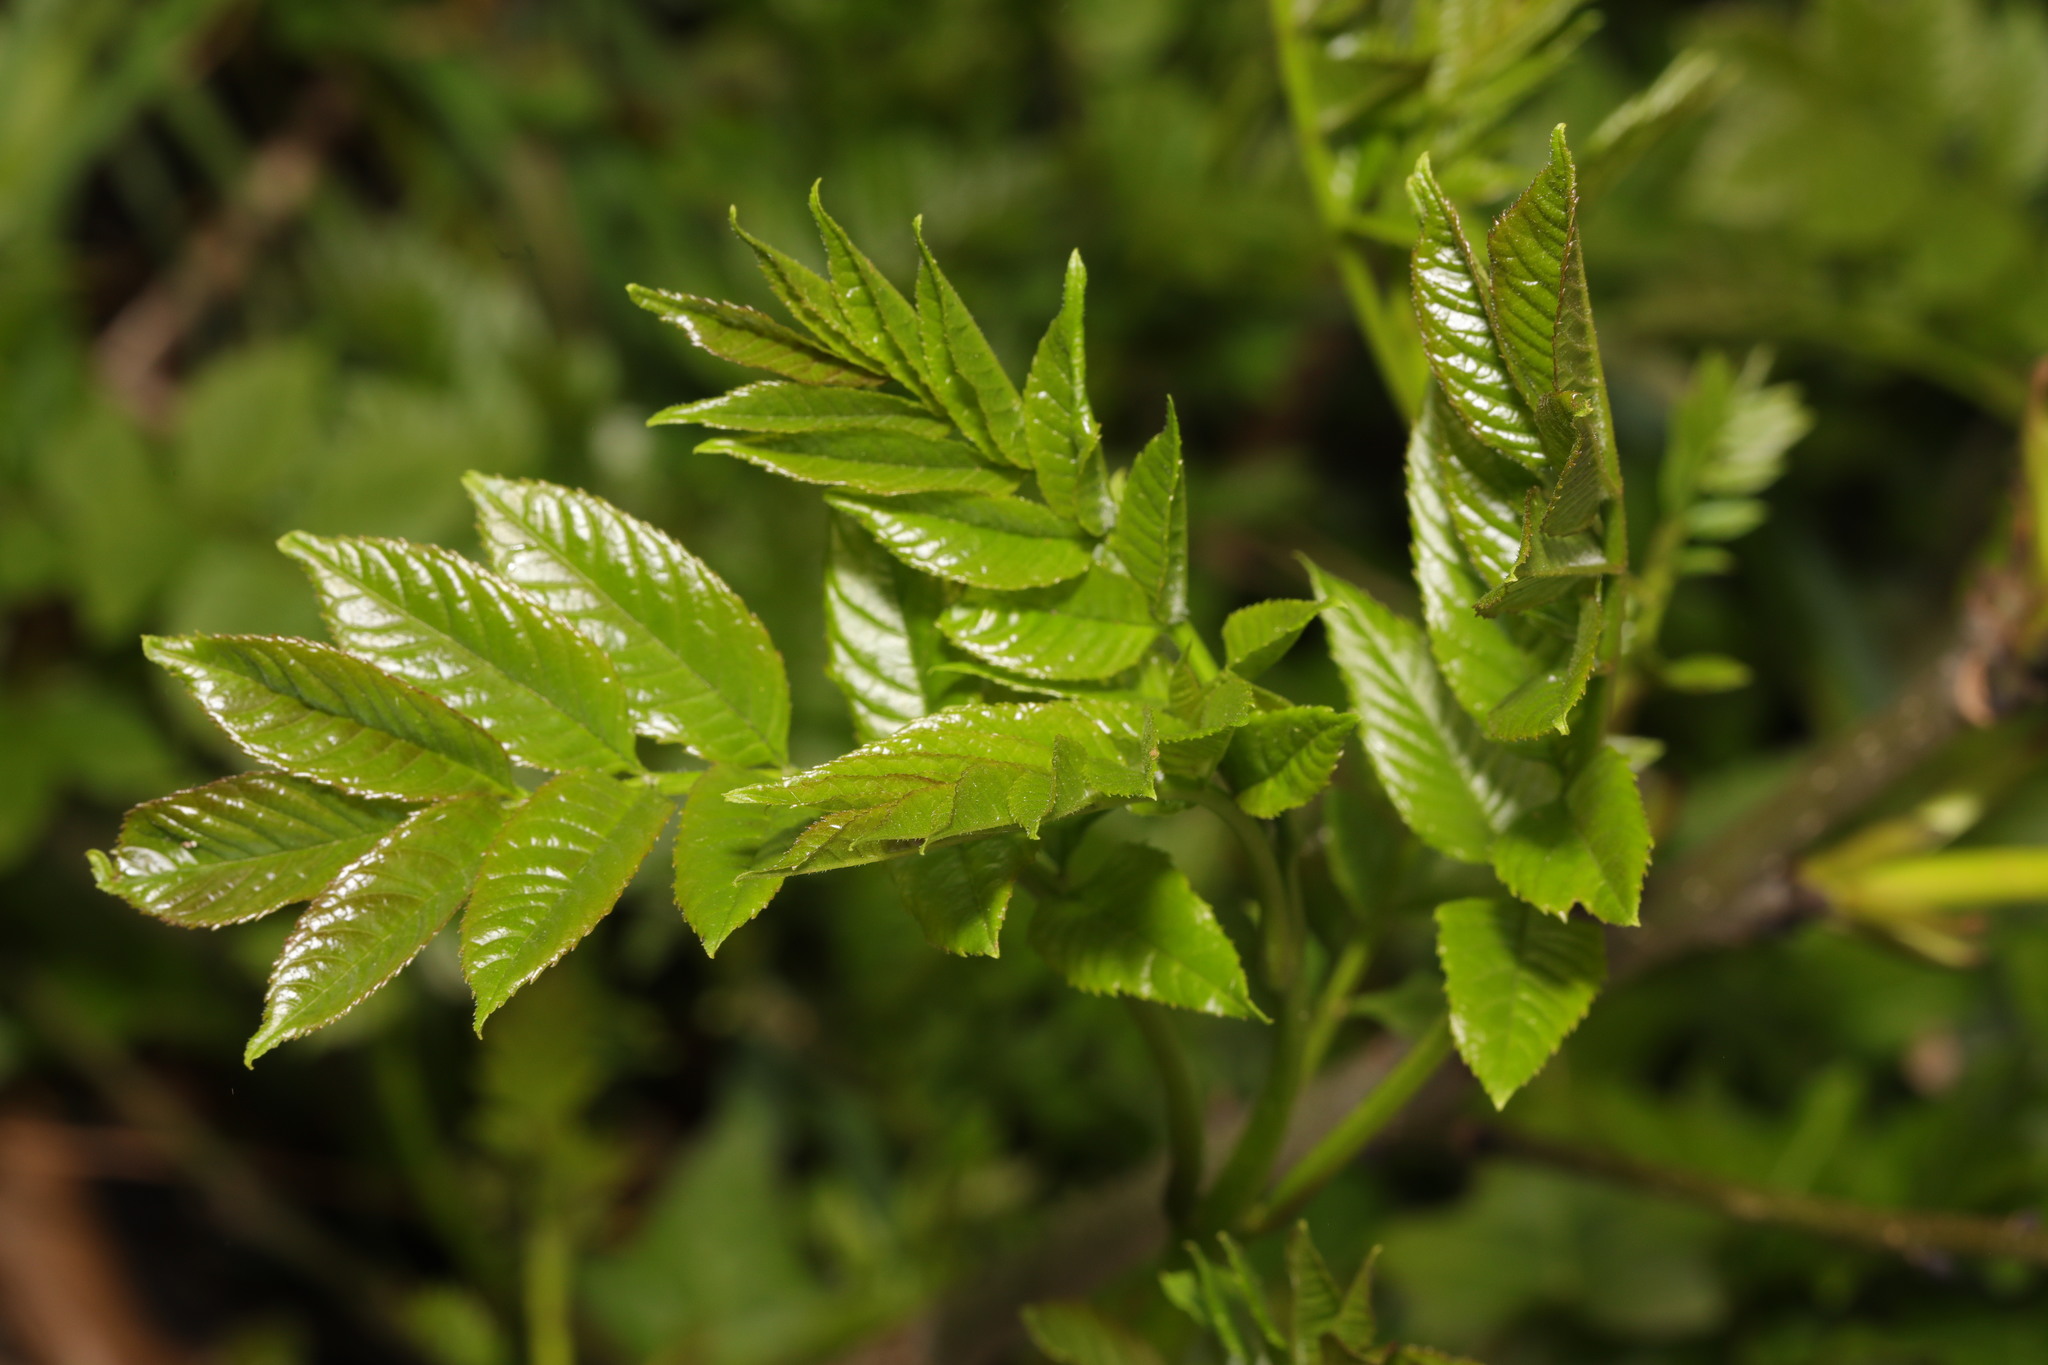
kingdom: Plantae
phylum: Tracheophyta
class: Magnoliopsida
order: Lamiales
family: Oleaceae
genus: Fraxinus
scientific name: Fraxinus excelsior
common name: European ash
